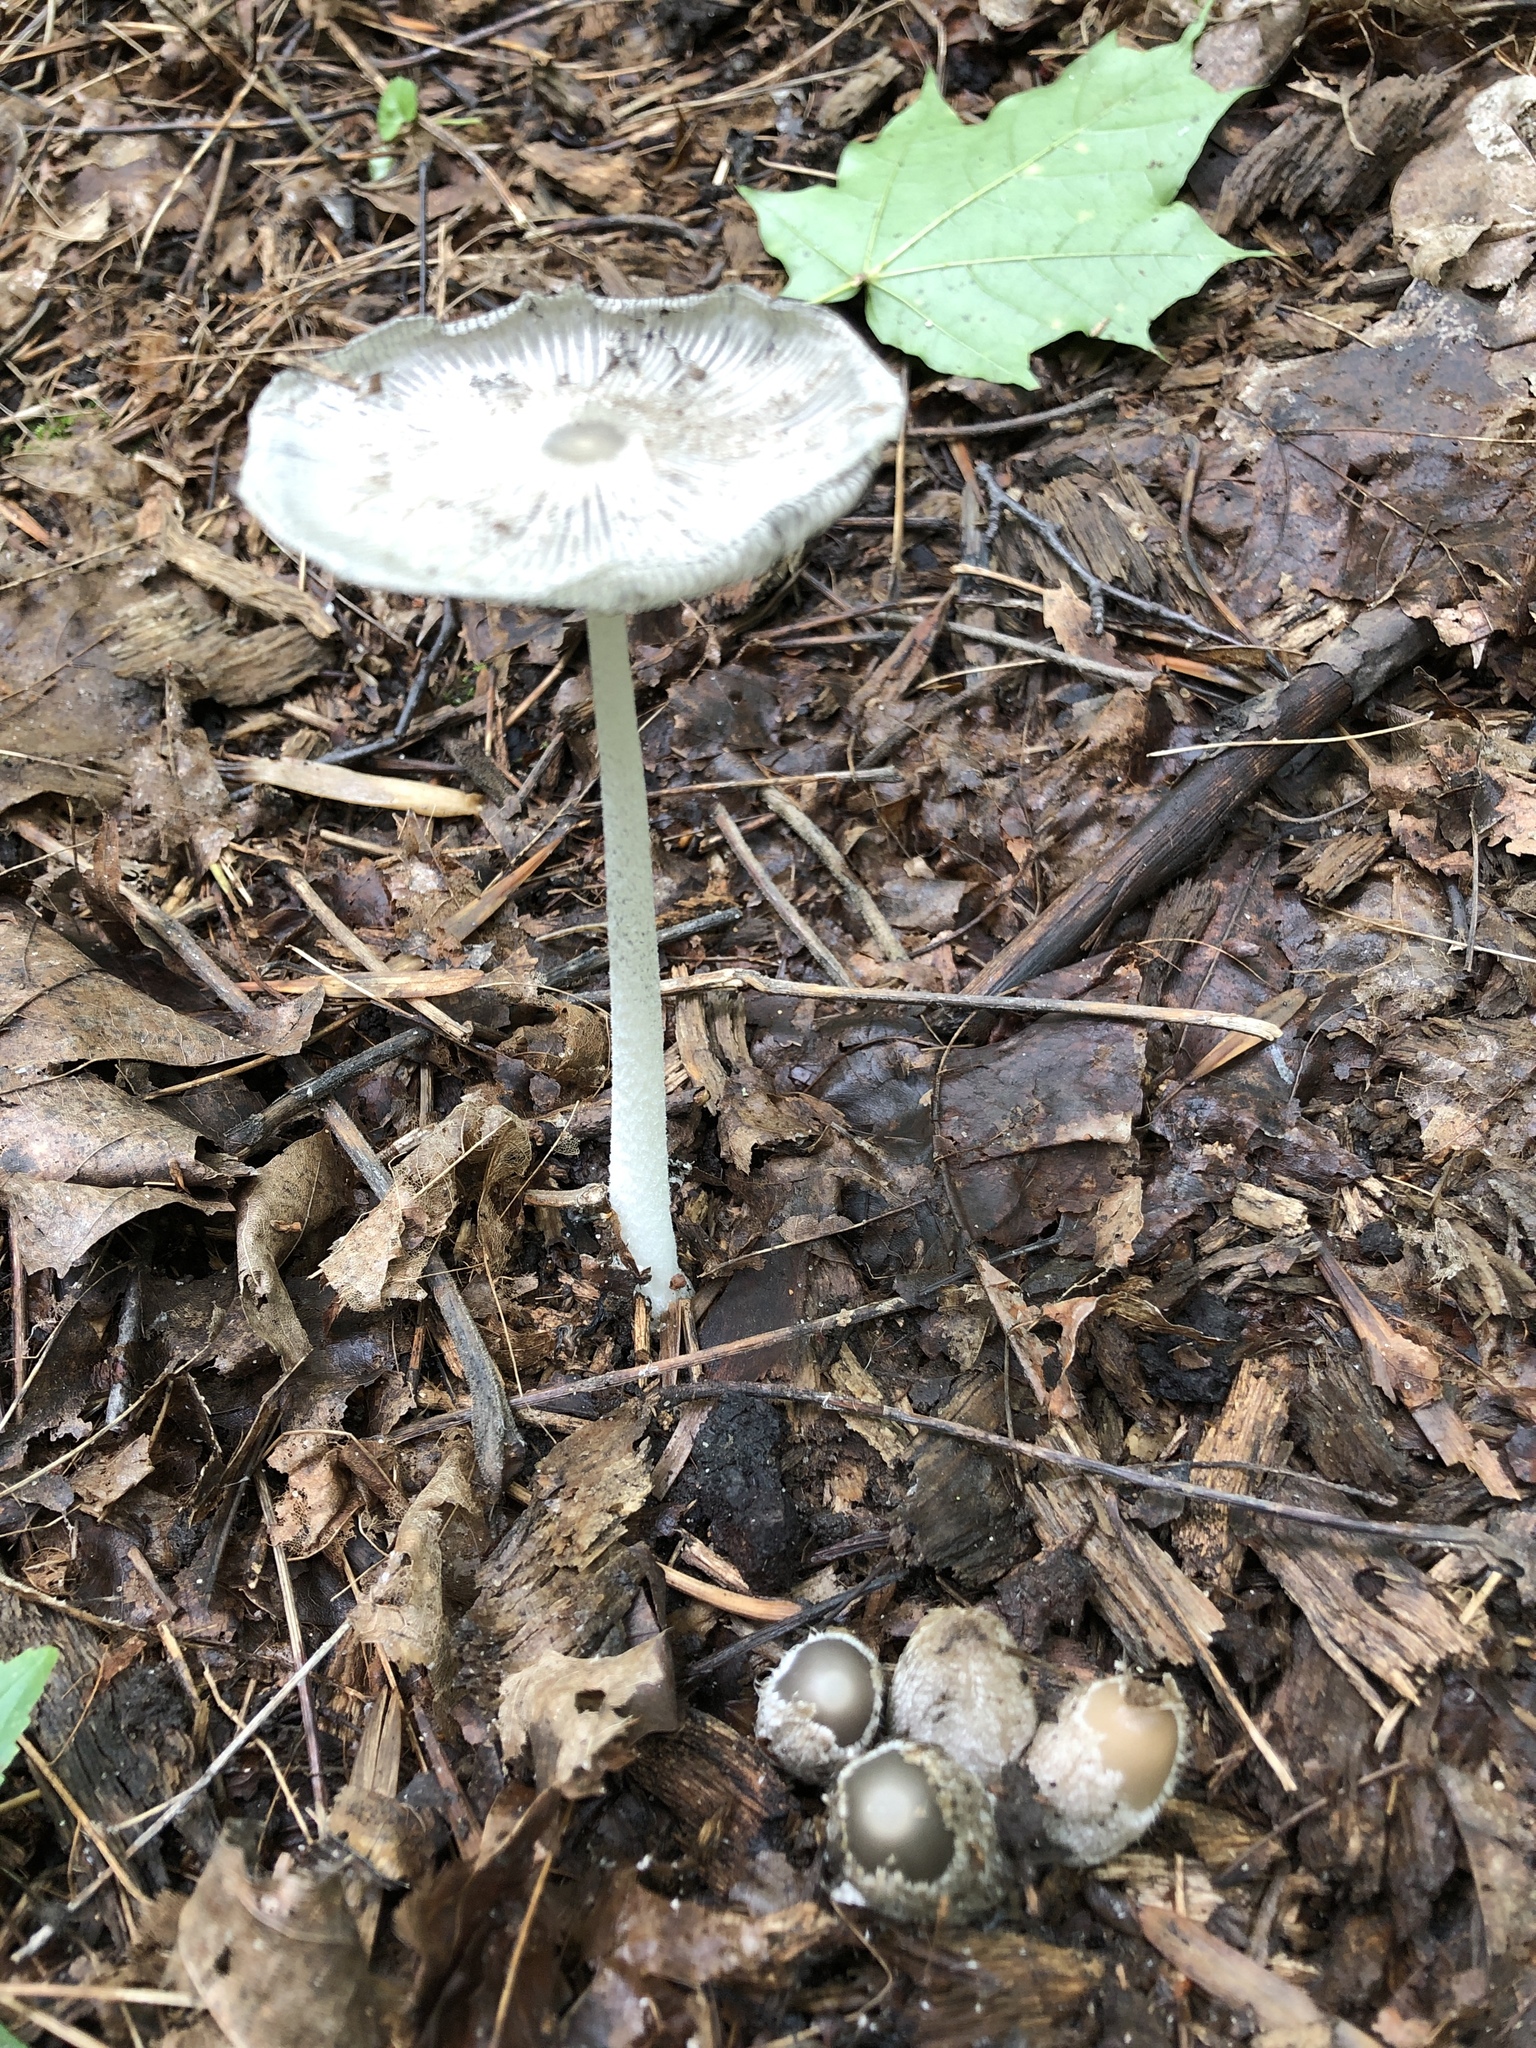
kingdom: Fungi
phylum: Basidiomycota
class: Agaricomycetes
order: Agaricales
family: Psathyrellaceae
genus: Coprinopsis
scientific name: Coprinopsis lagopus
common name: Hare'sfoot inkcap
